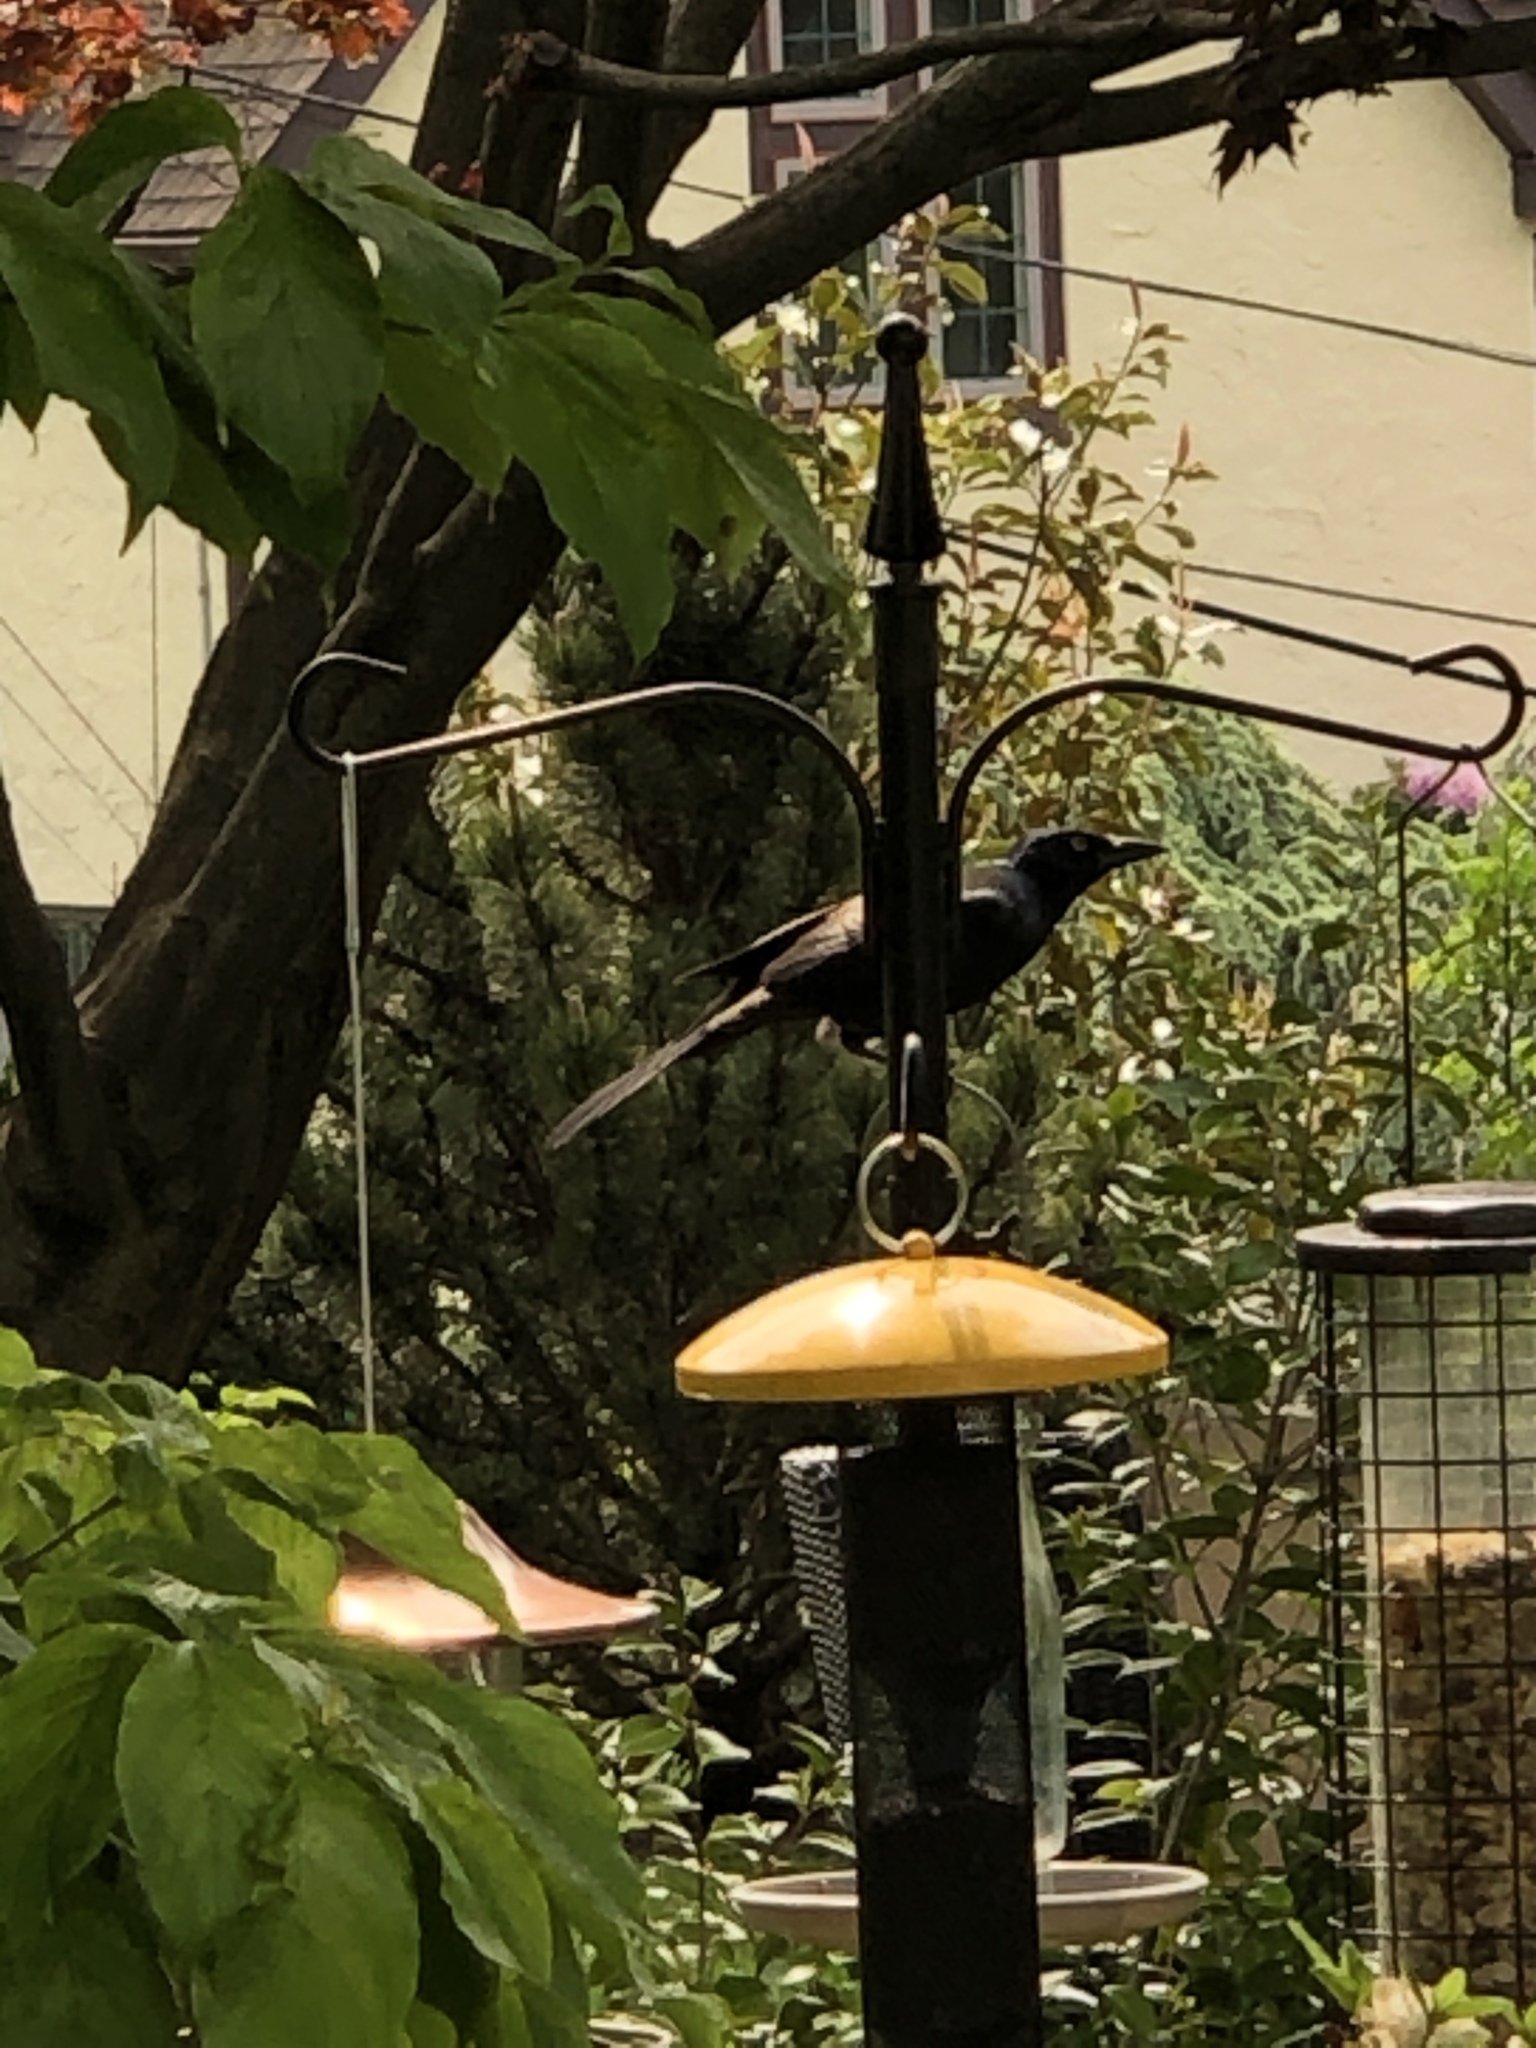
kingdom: Animalia
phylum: Chordata
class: Aves
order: Passeriformes
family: Icteridae
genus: Quiscalus
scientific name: Quiscalus quiscula
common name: Common grackle
